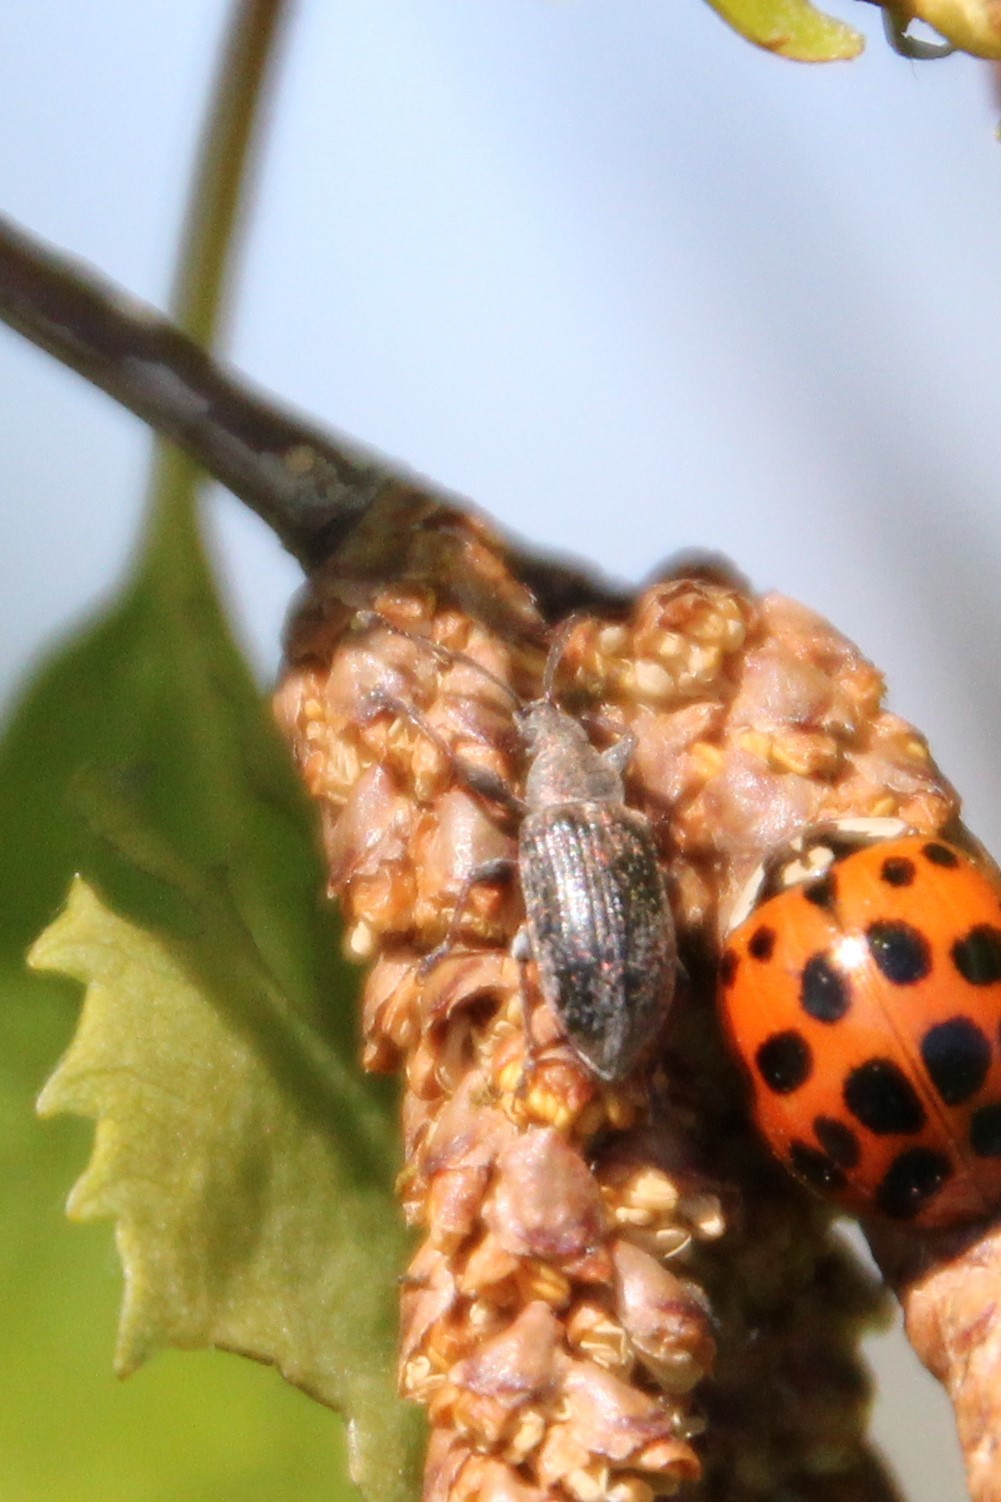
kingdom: Animalia
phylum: Arthropoda
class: Insecta
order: Coleoptera
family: Curculionidae
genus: Phyllobius
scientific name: Phyllobius pyri
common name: Common leaf weevil
